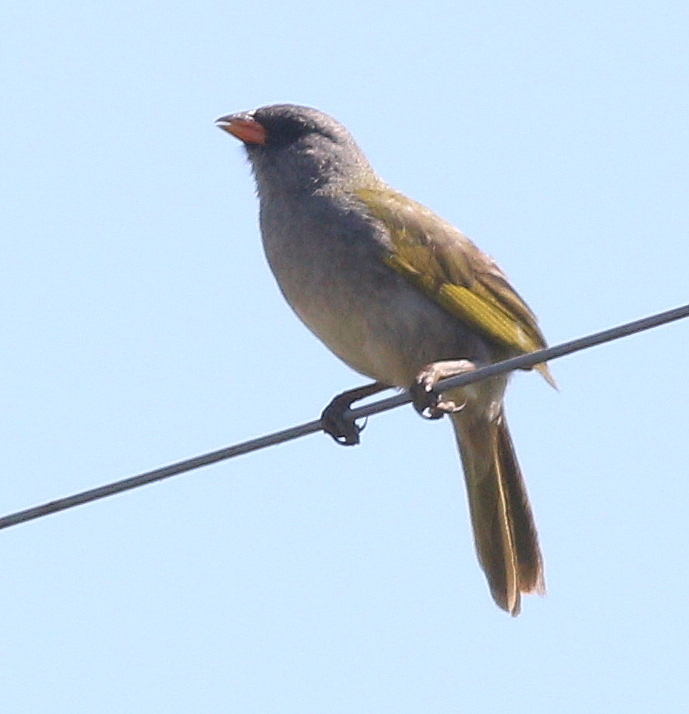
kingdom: Animalia
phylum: Chordata
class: Aves
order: Passeriformes
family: Thraupidae
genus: Embernagra
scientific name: Embernagra platensis
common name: Pampa finch
